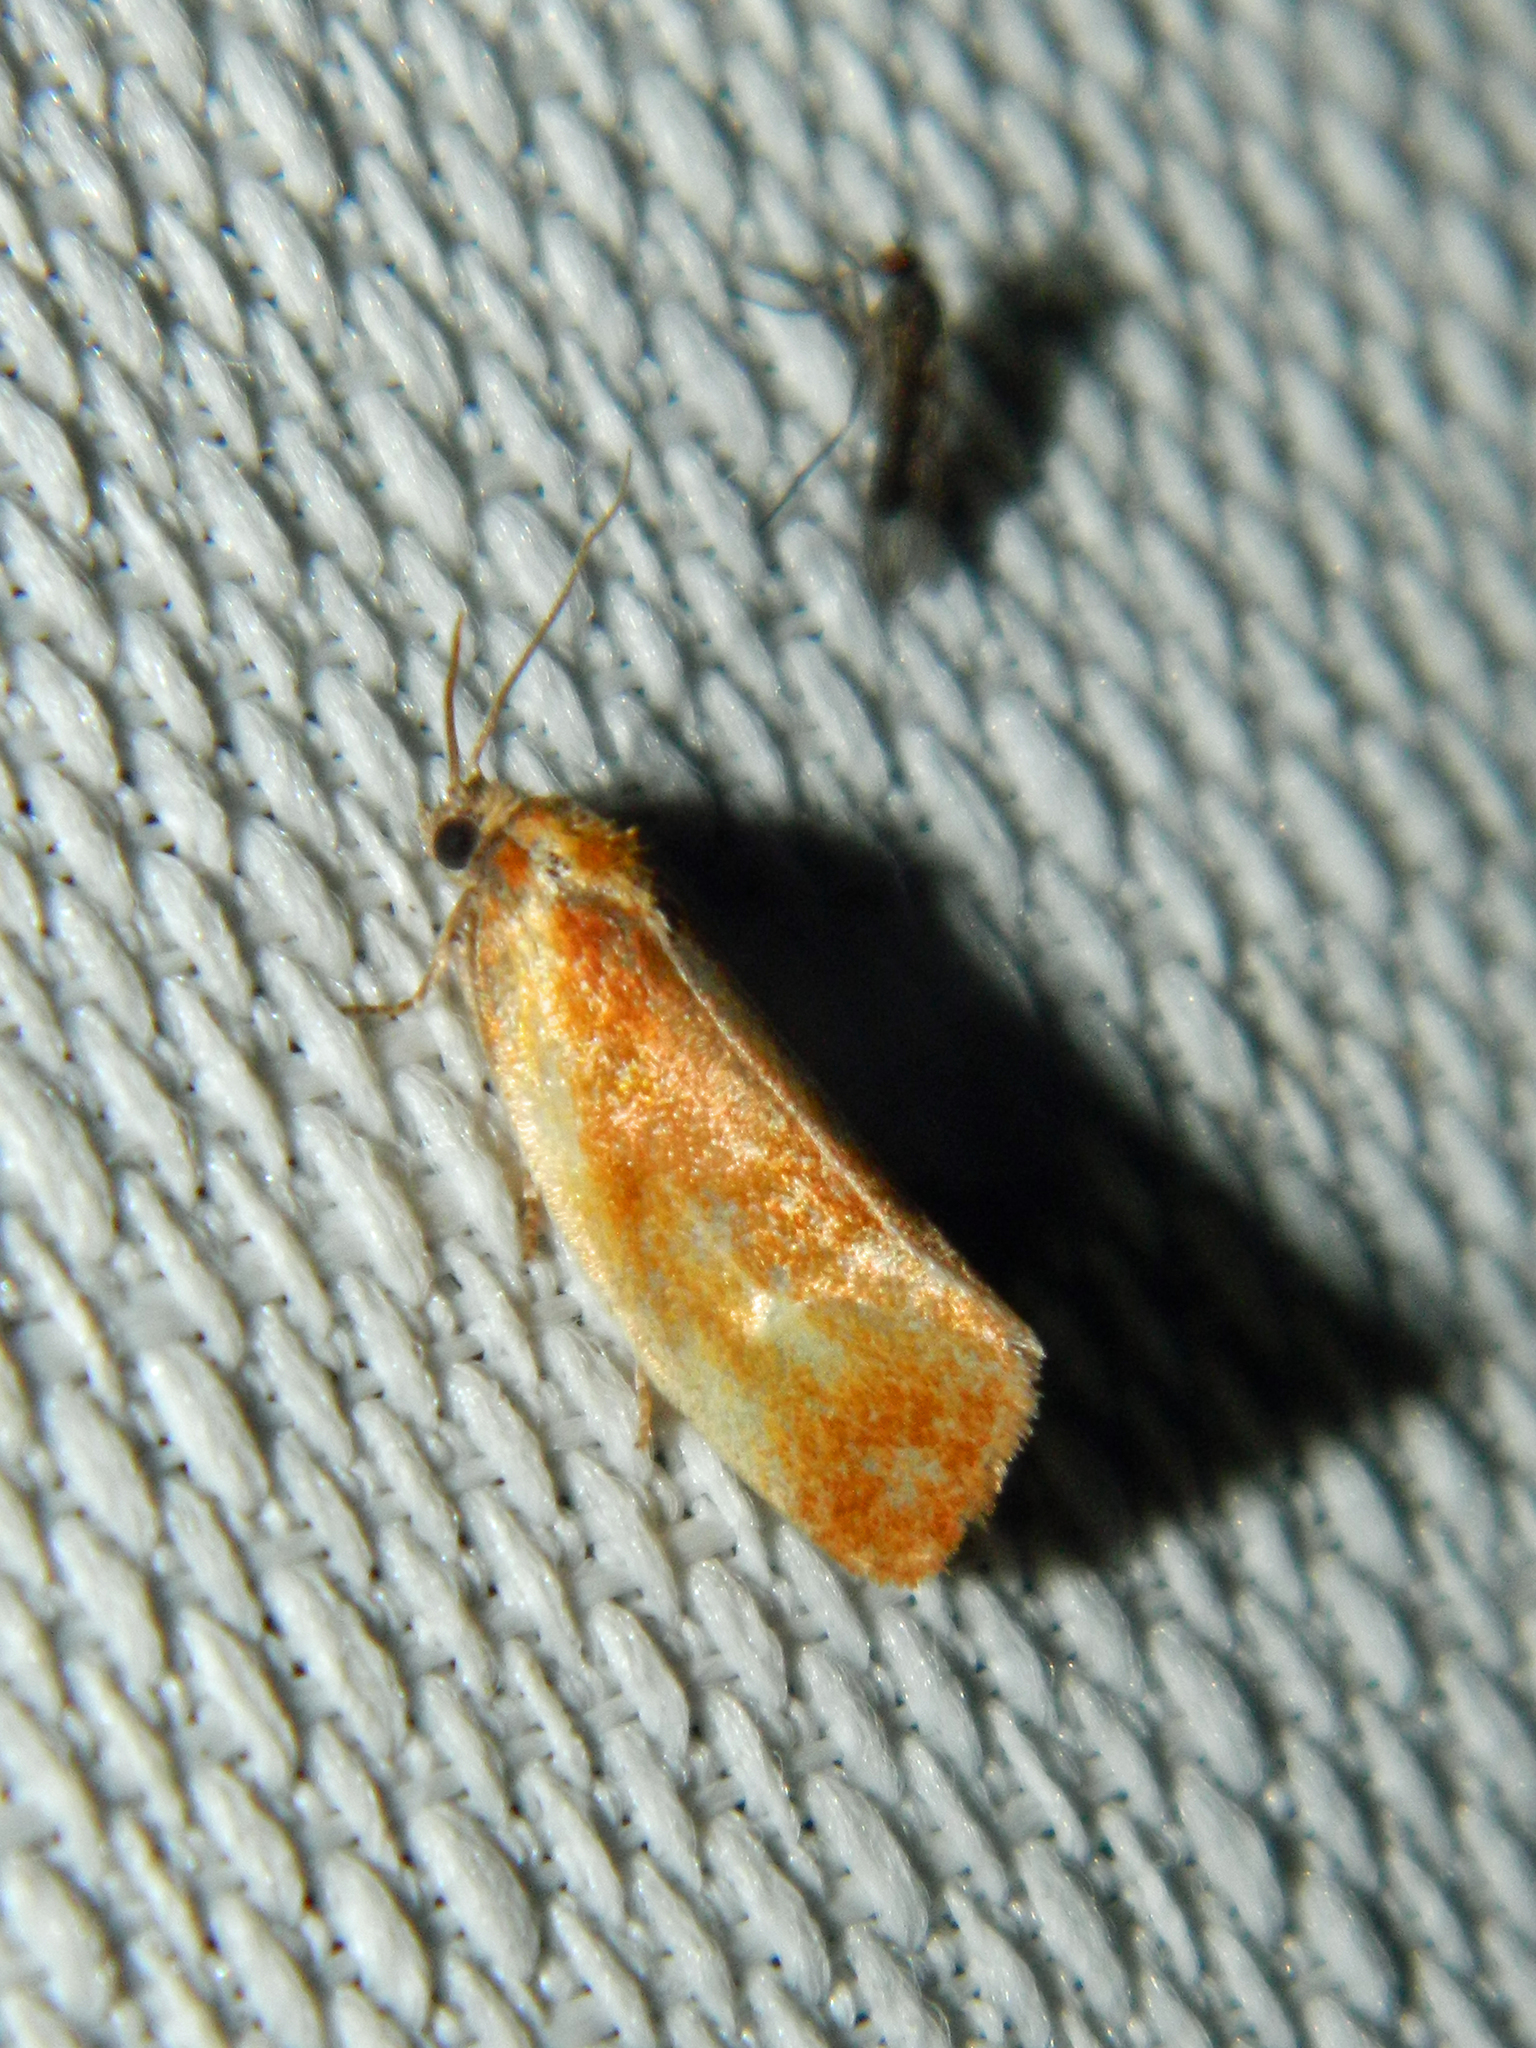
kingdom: Animalia
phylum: Arthropoda
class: Insecta
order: Lepidoptera
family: Tortricidae
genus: Eulia
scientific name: Eulia ministrana
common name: Brassy twist
